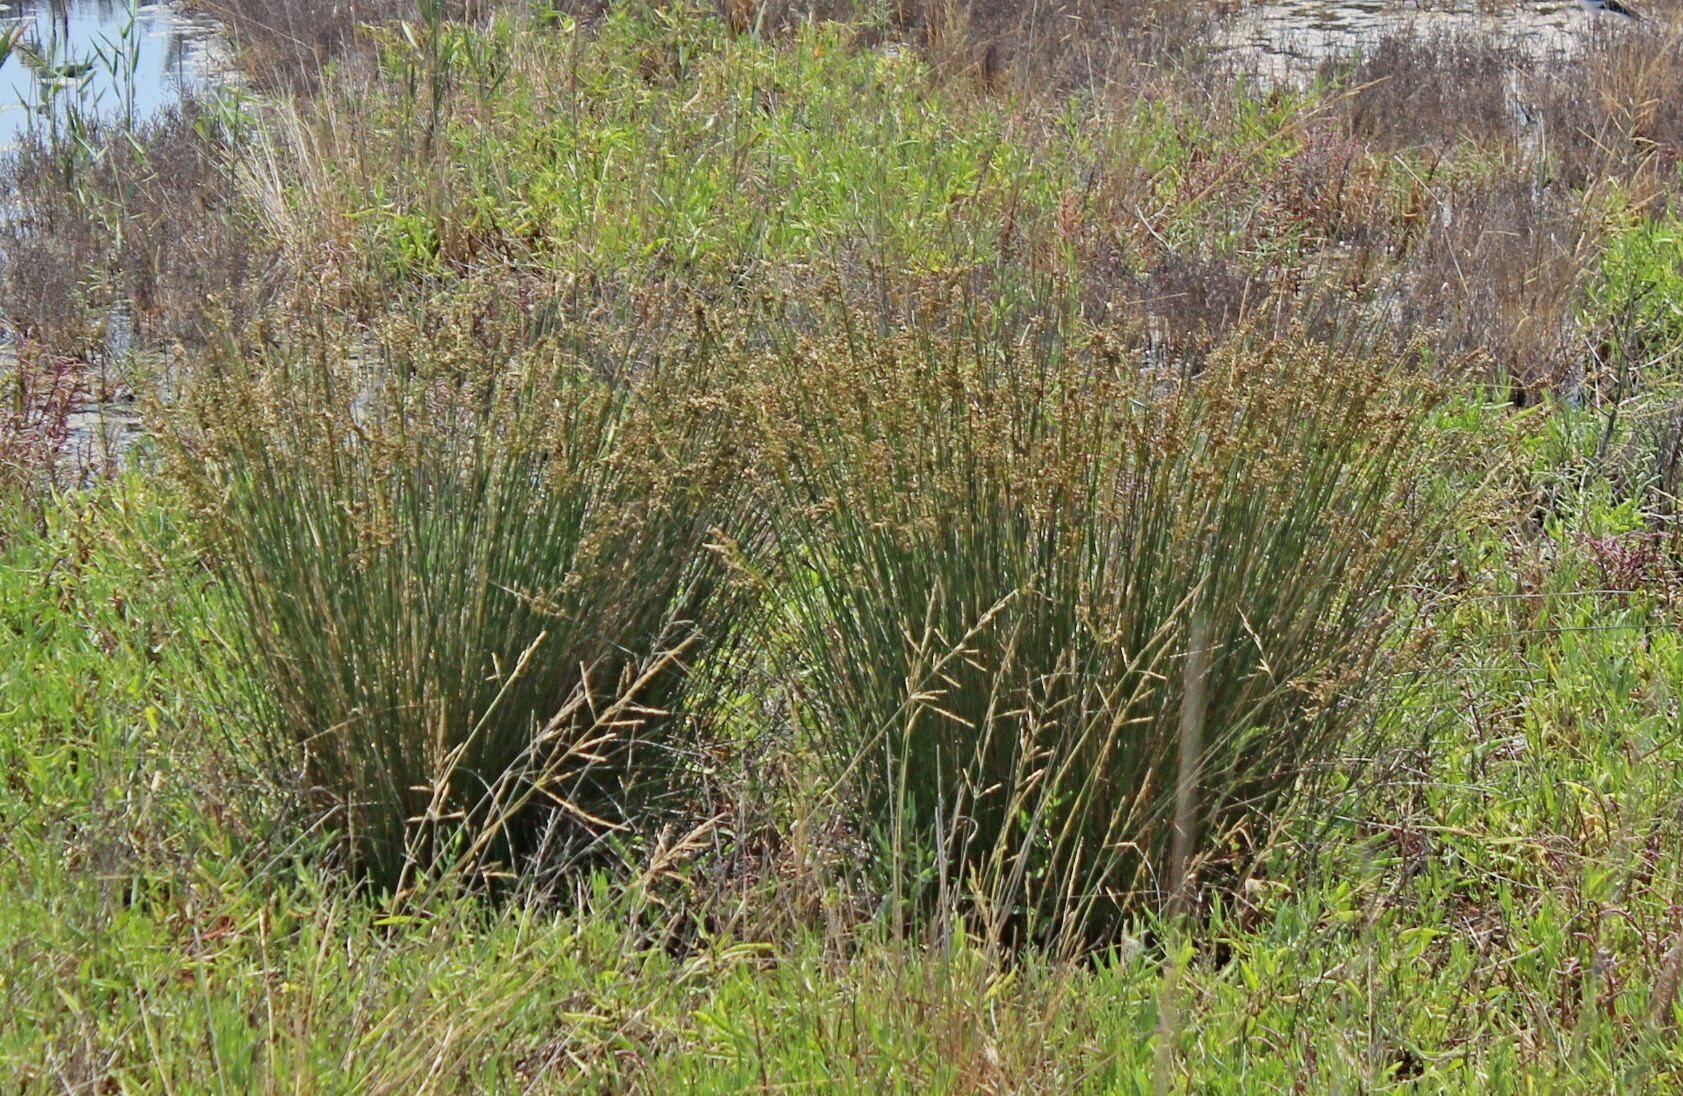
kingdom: Plantae
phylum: Tracheophyta
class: Liliopsida
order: Poales
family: Juncaceae
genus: Juncus
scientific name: Juncus maritimus
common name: Sea rush
